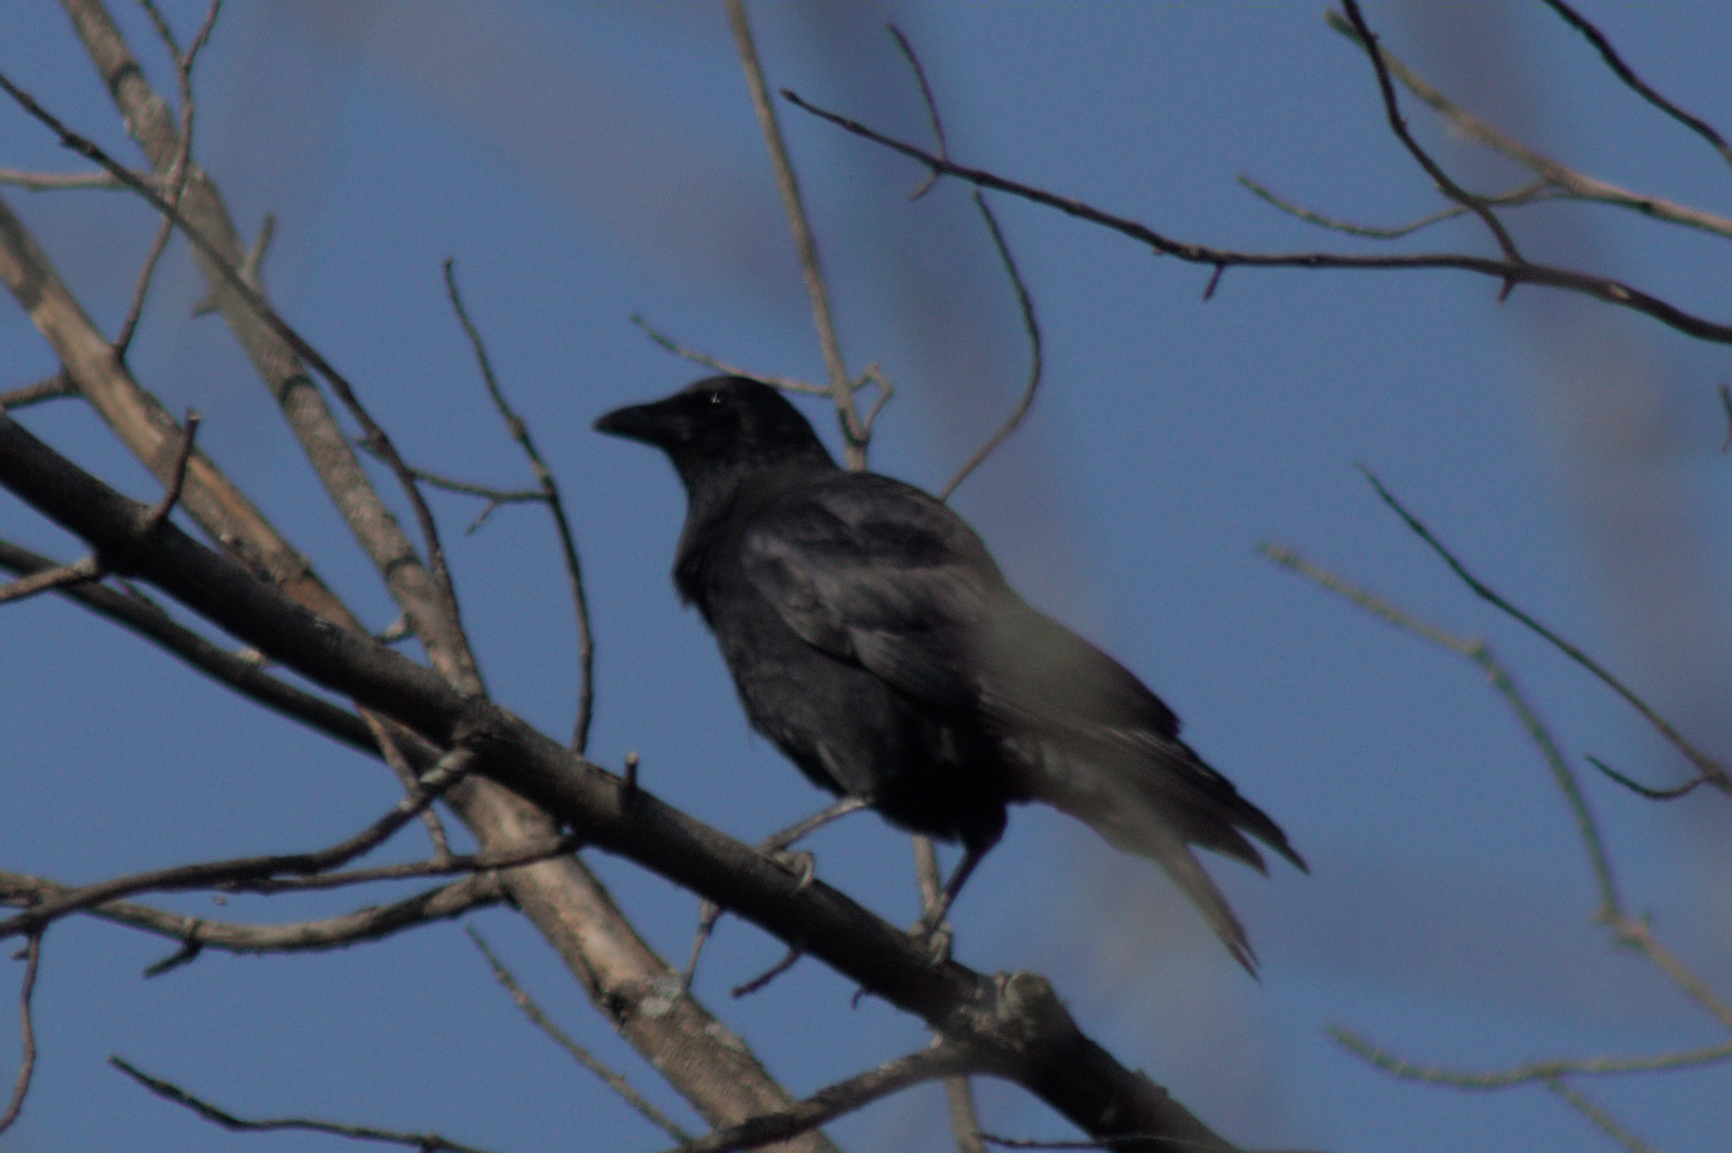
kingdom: Animalia
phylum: Chordata
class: Aves
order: Passeriformes
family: Corvidae
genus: Corvus
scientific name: Corvus corax
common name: Common raven
